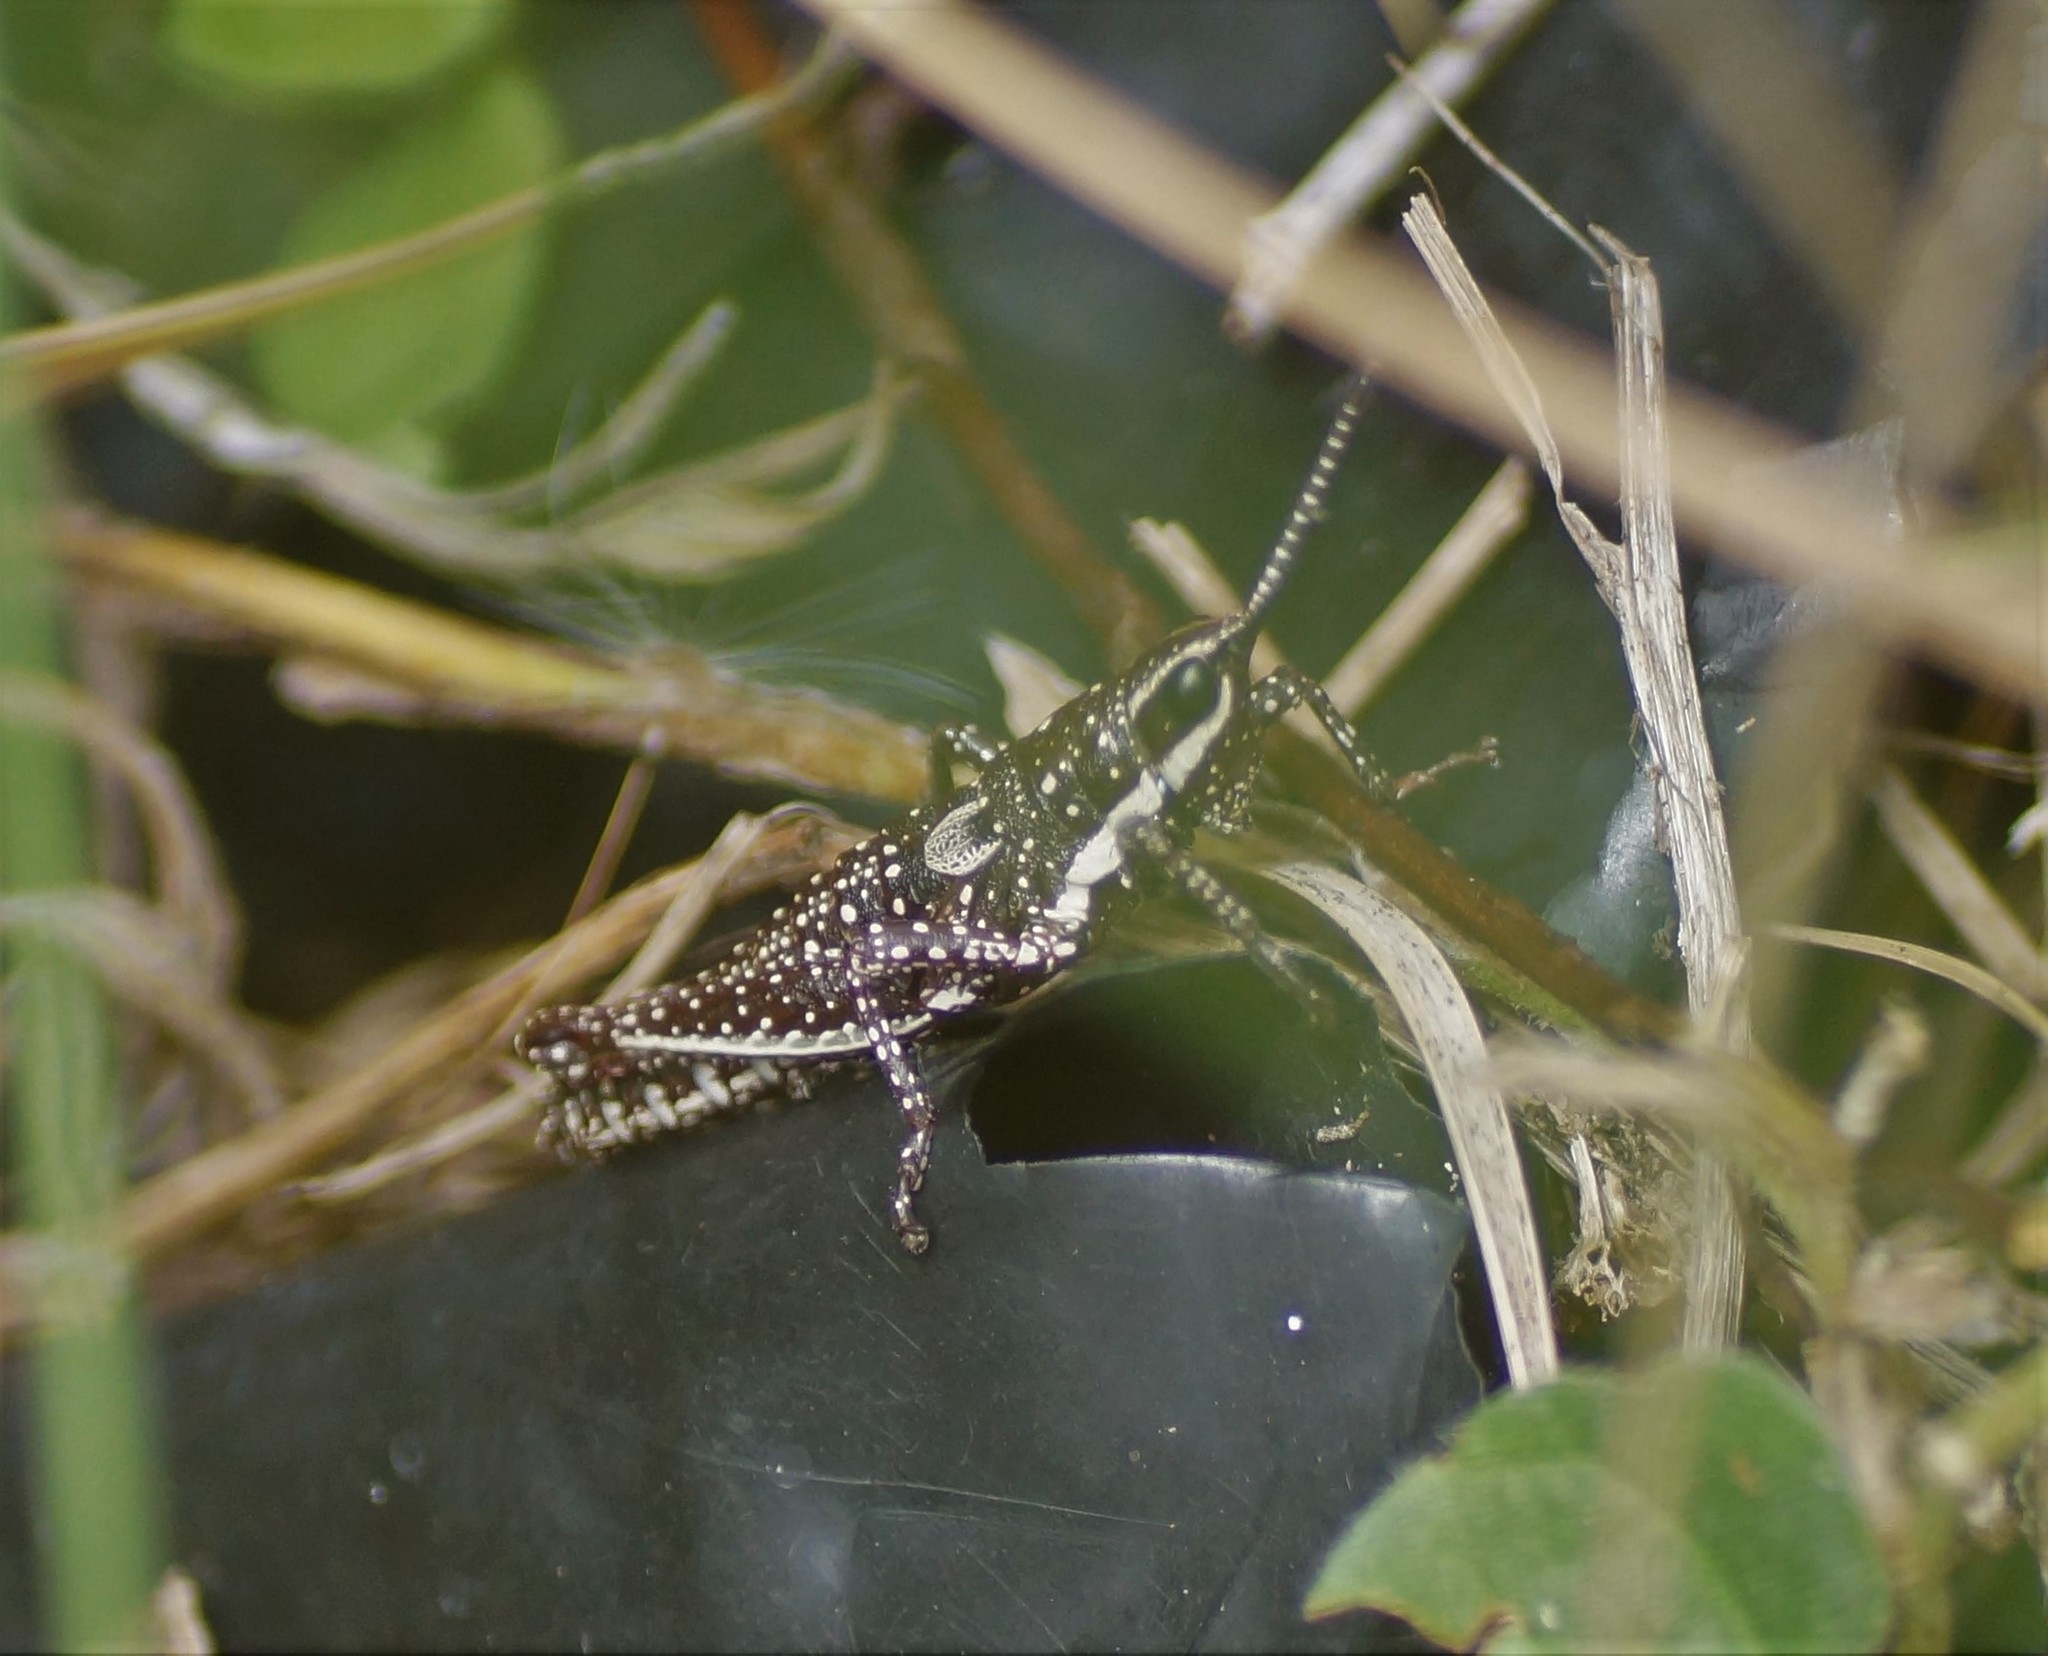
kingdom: Animalia
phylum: Arthropoda
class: Insecta
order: Orthoptera
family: Pyrgomorphidae
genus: Monistria
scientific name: Monistria concinna
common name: Southern pyrgomorph
